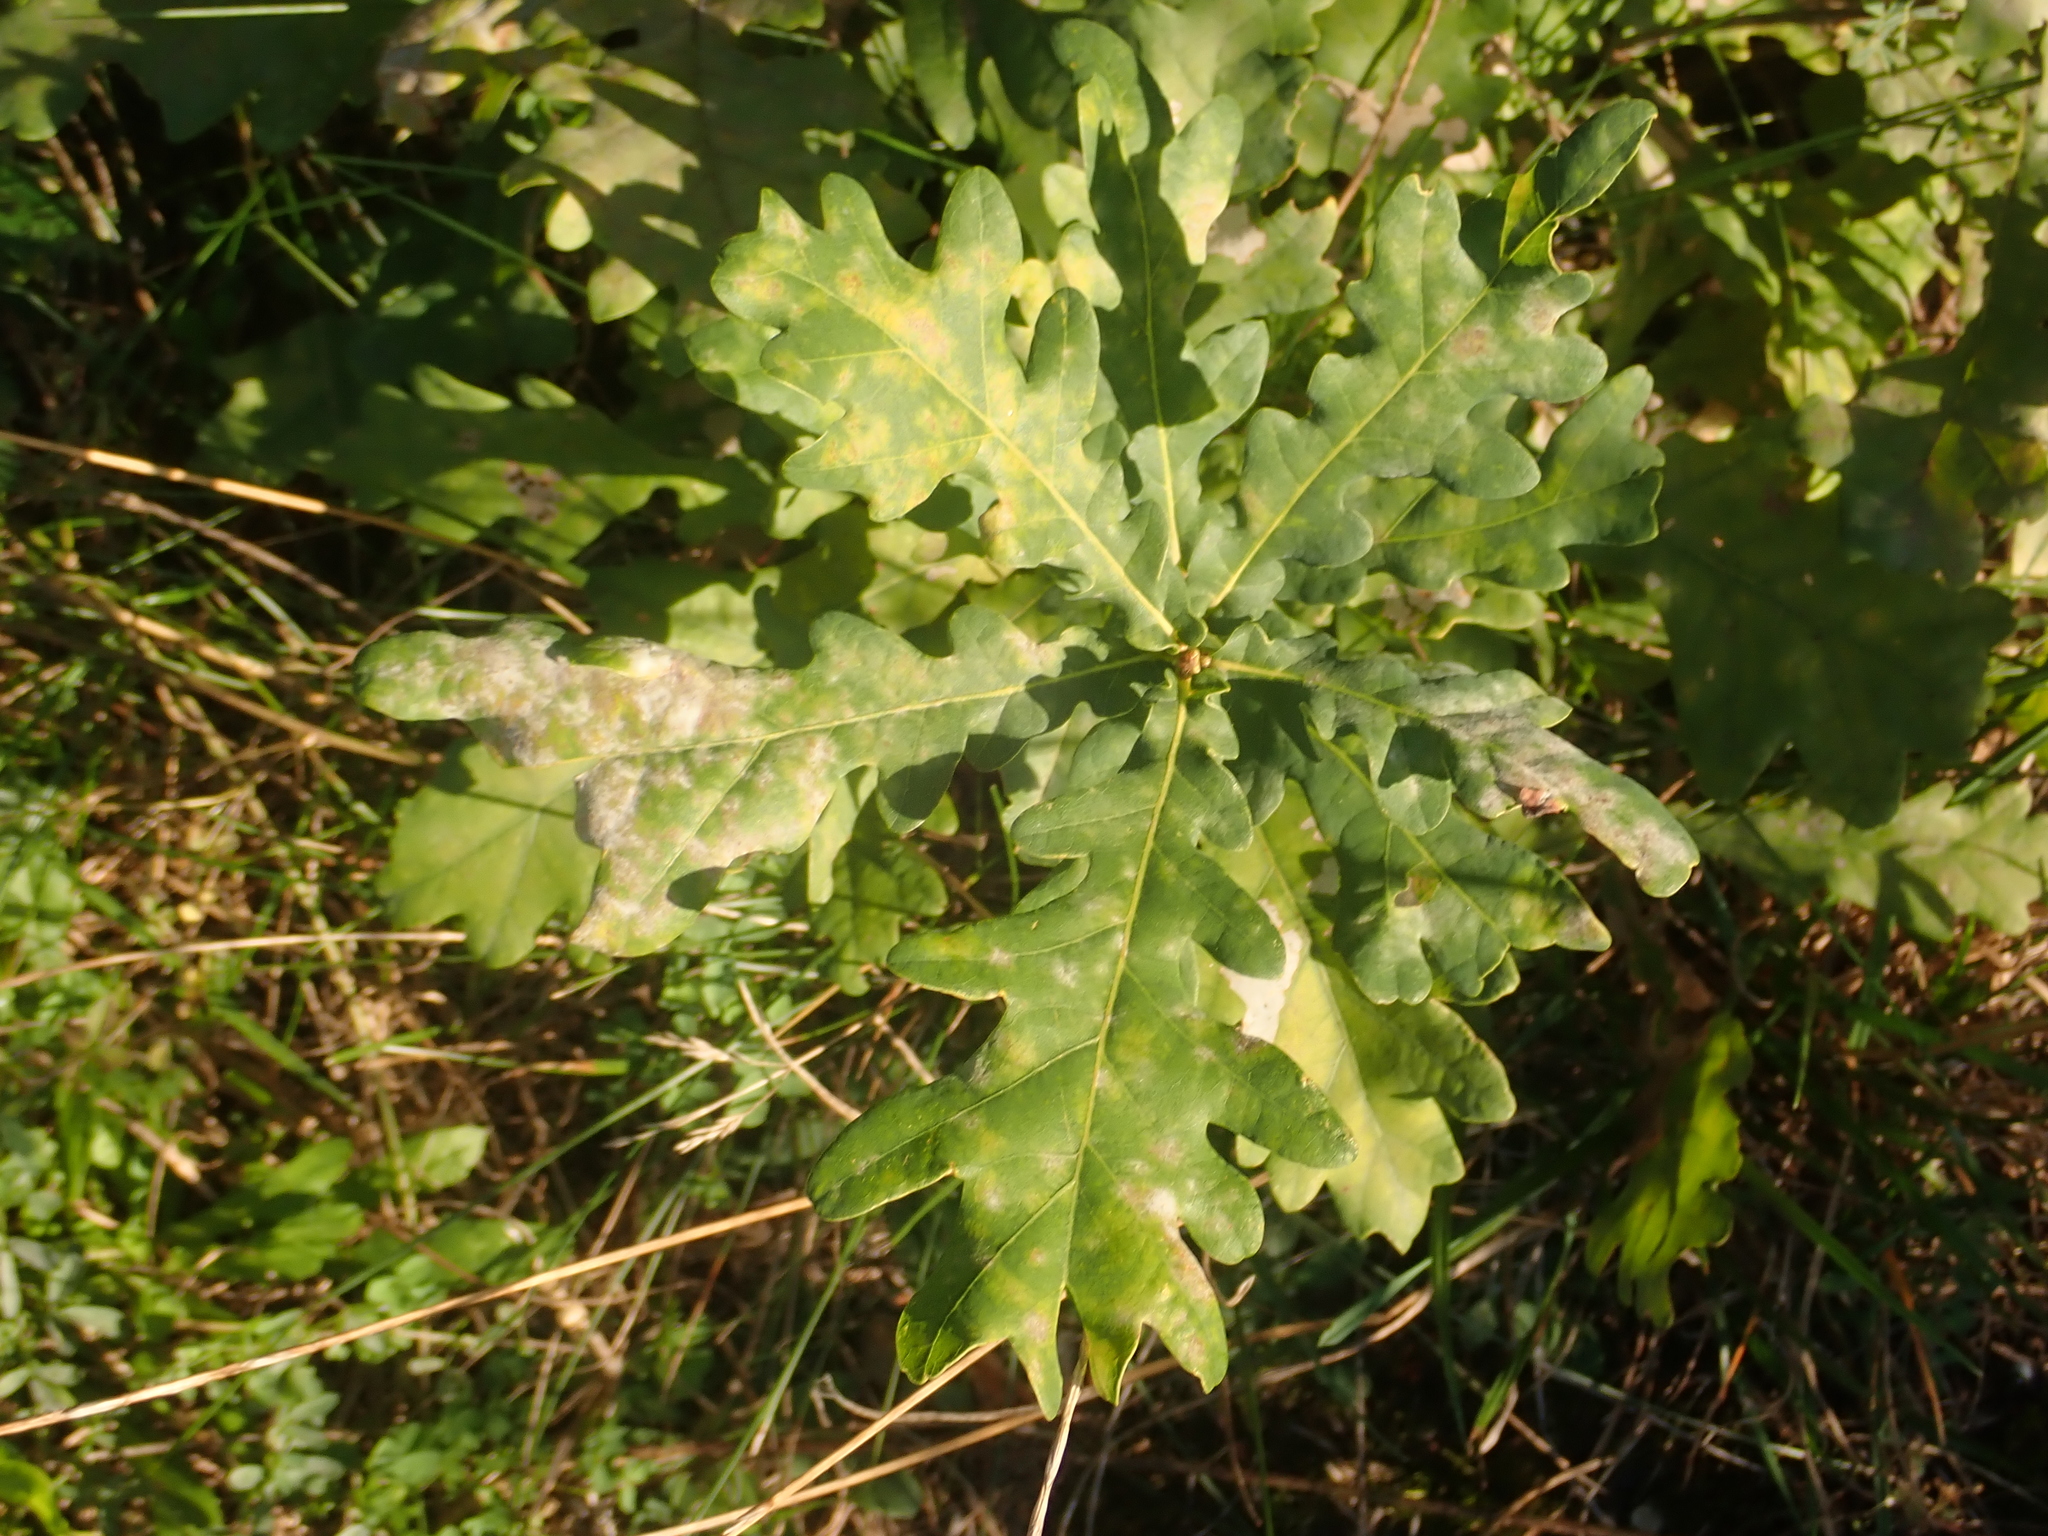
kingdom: Plantae
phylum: Tracheophyta
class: Magnoliopsida
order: Fagales
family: Fagaceae
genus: Quercus
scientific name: Quercus robur
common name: Pedunculate oak
